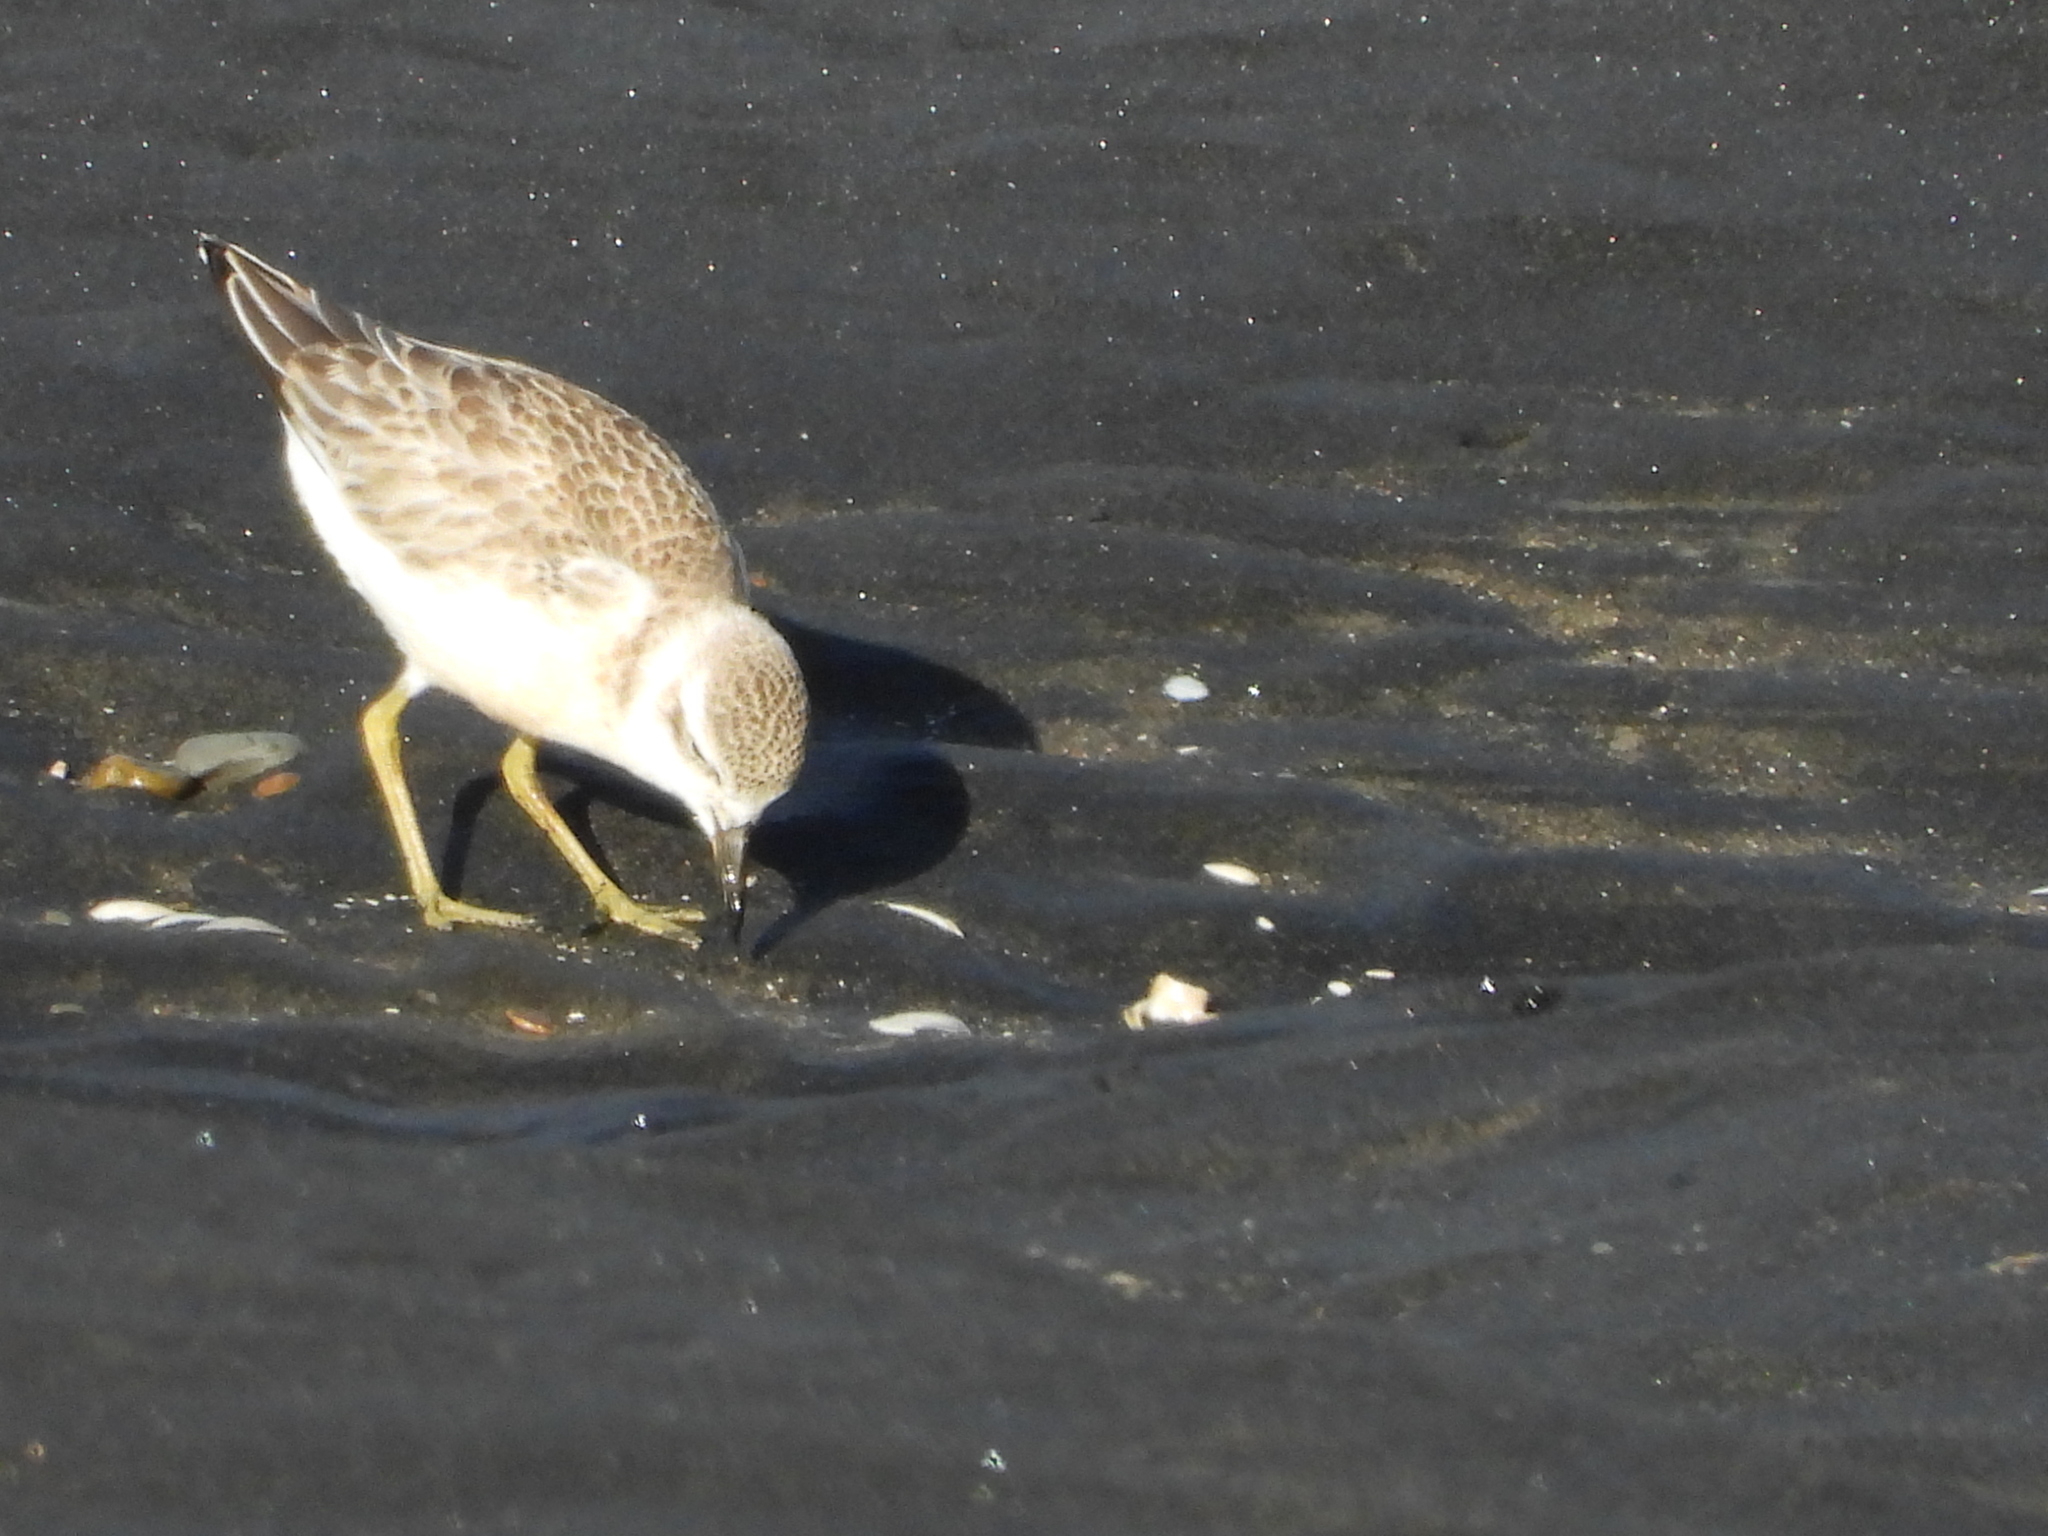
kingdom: Animalia
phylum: Chordata
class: Aves
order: Charadriiformes
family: Charadriidae
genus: Anarhynchus
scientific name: Anarhynchus
